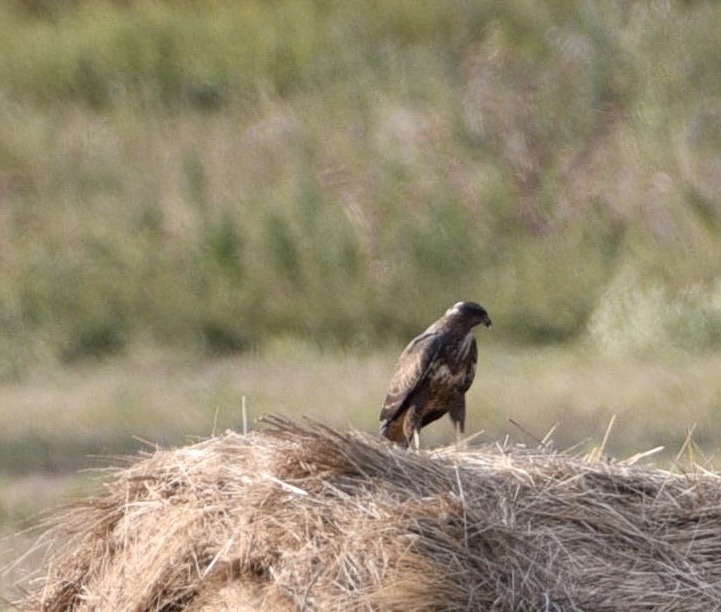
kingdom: Animalia
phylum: Chordata
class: Aves
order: Accipitriformes
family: Accipitridae
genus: Buteo
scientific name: Buteo buteo
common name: Common buzzard
